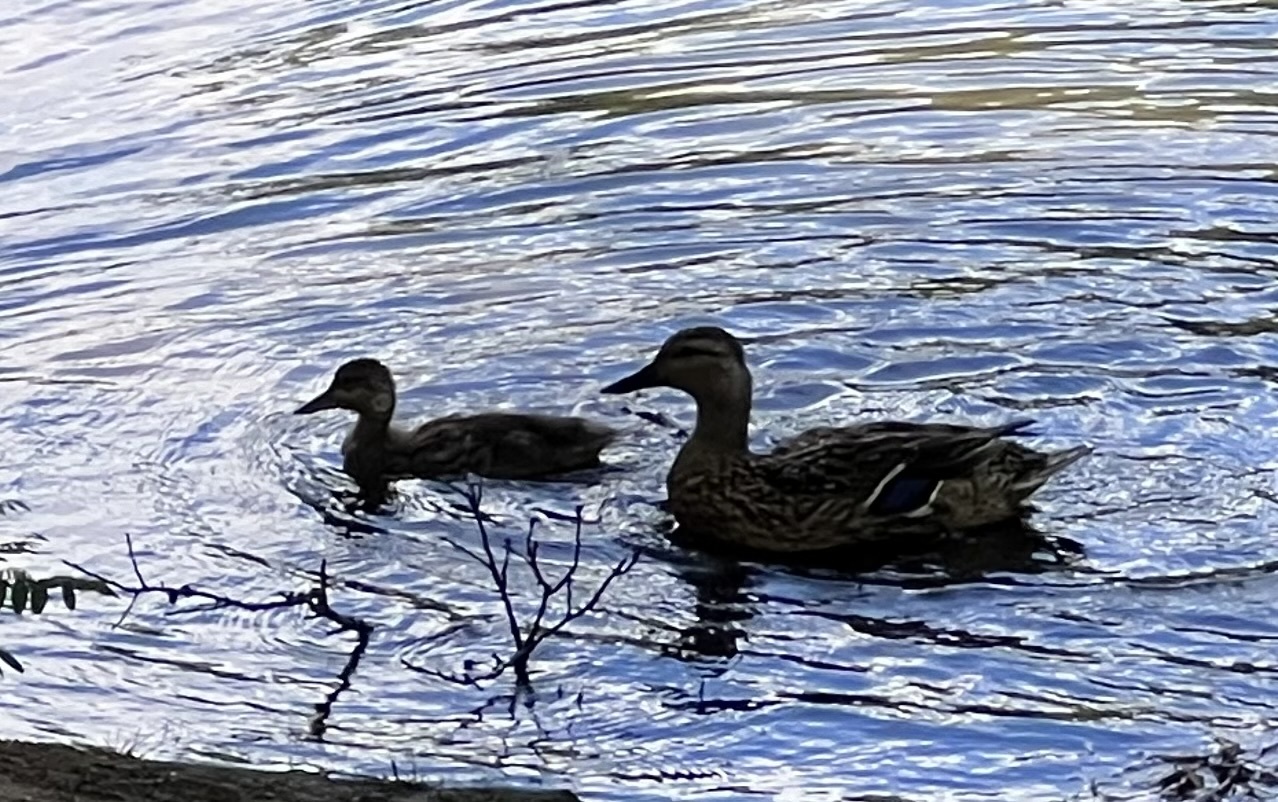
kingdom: Animalia
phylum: Chordata
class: Aves
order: Anseriformes
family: Anatidae
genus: Anas
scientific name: Anas platyrhynchos
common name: Mallard
